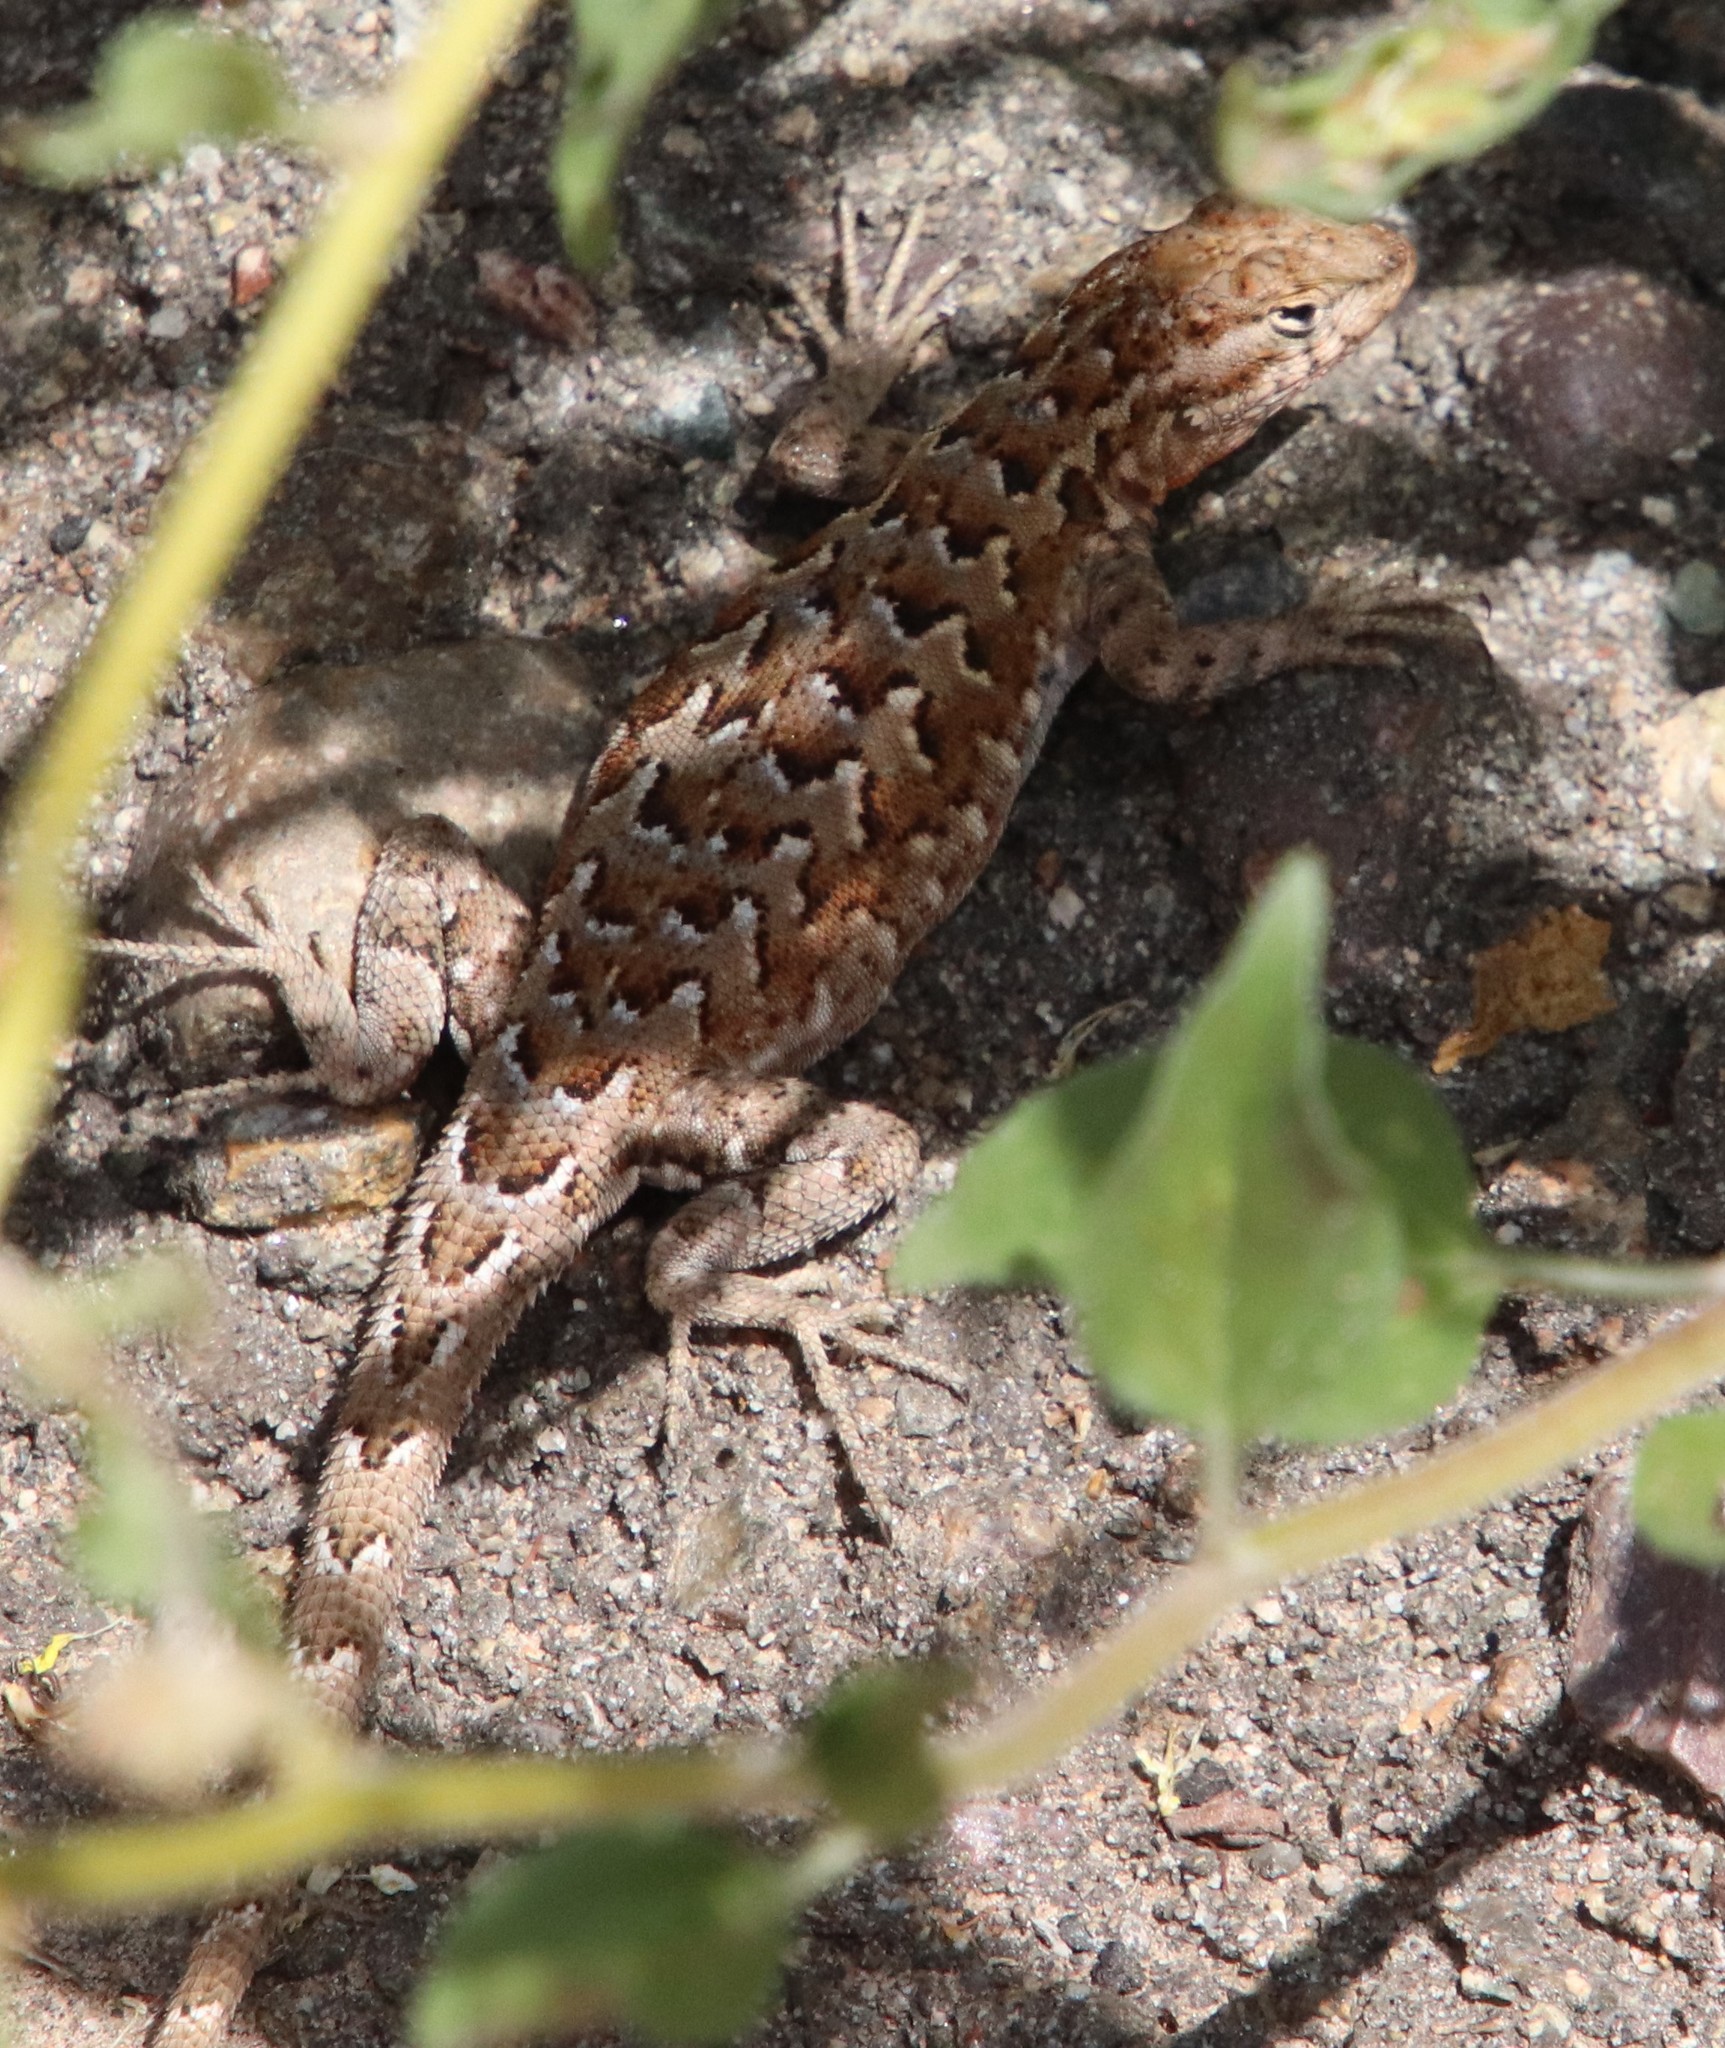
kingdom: Animalia
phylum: Chordata
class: Squamata
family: Phrynosomatidae
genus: Uta
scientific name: Uta stansburiana
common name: Side-blotched lizard
